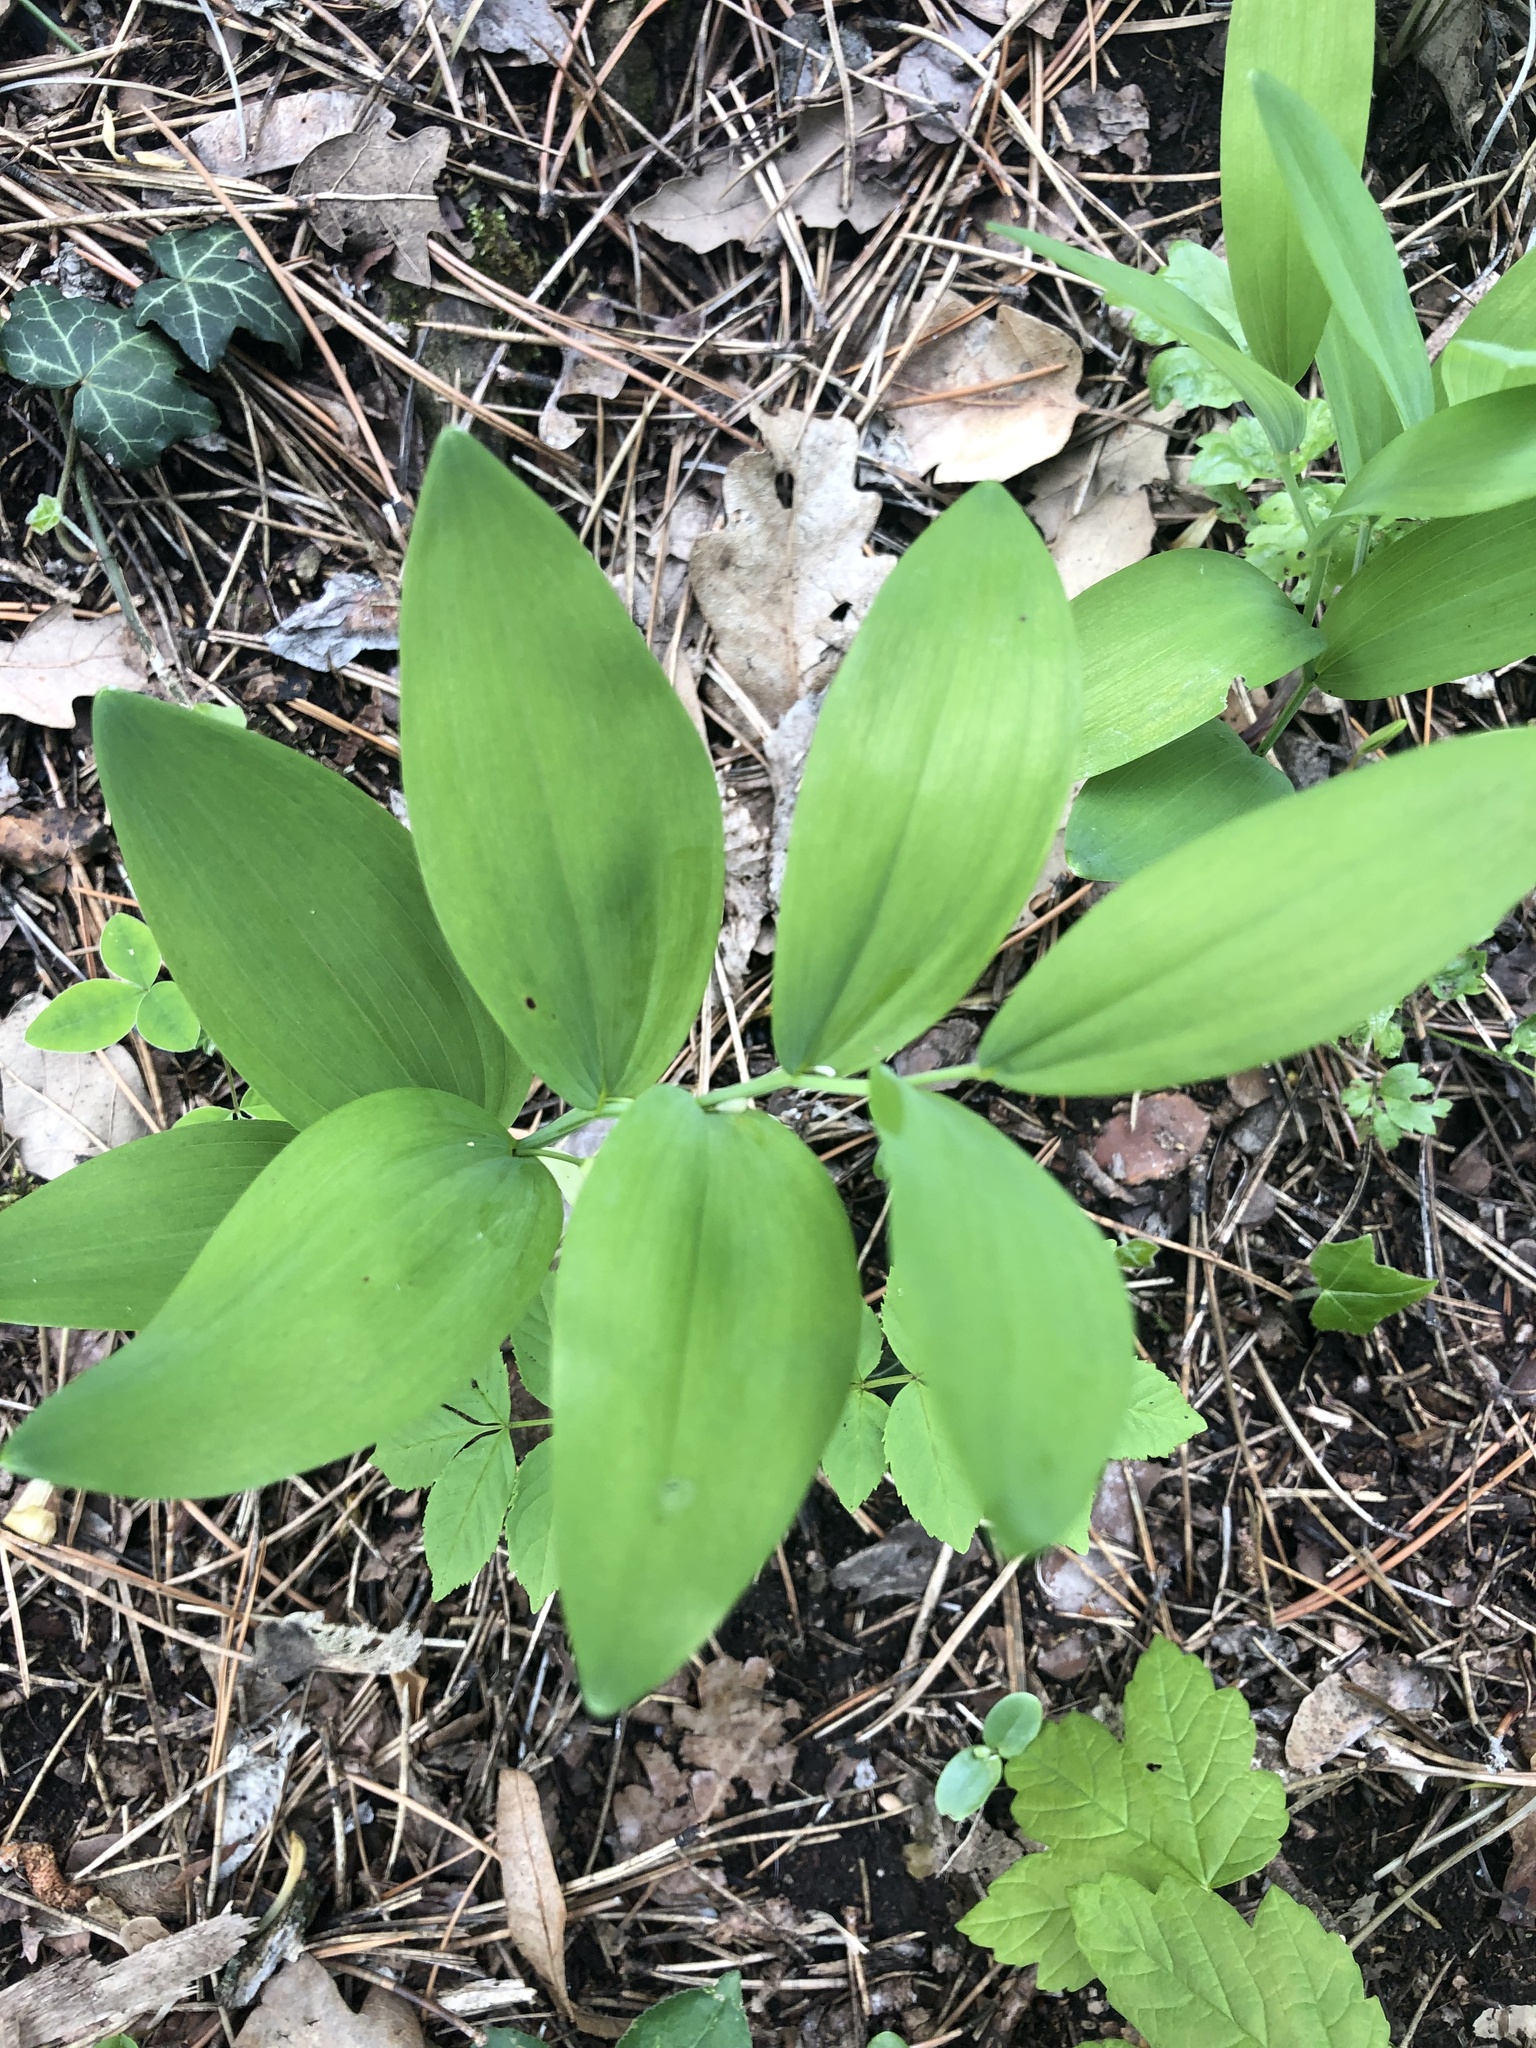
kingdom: Plantae
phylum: Tracheophyta
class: Liliopsida
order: Asparagales
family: Asparagaceae
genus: Polygonatum
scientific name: Polygonatum odoratum
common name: Angular solomon's-seal
